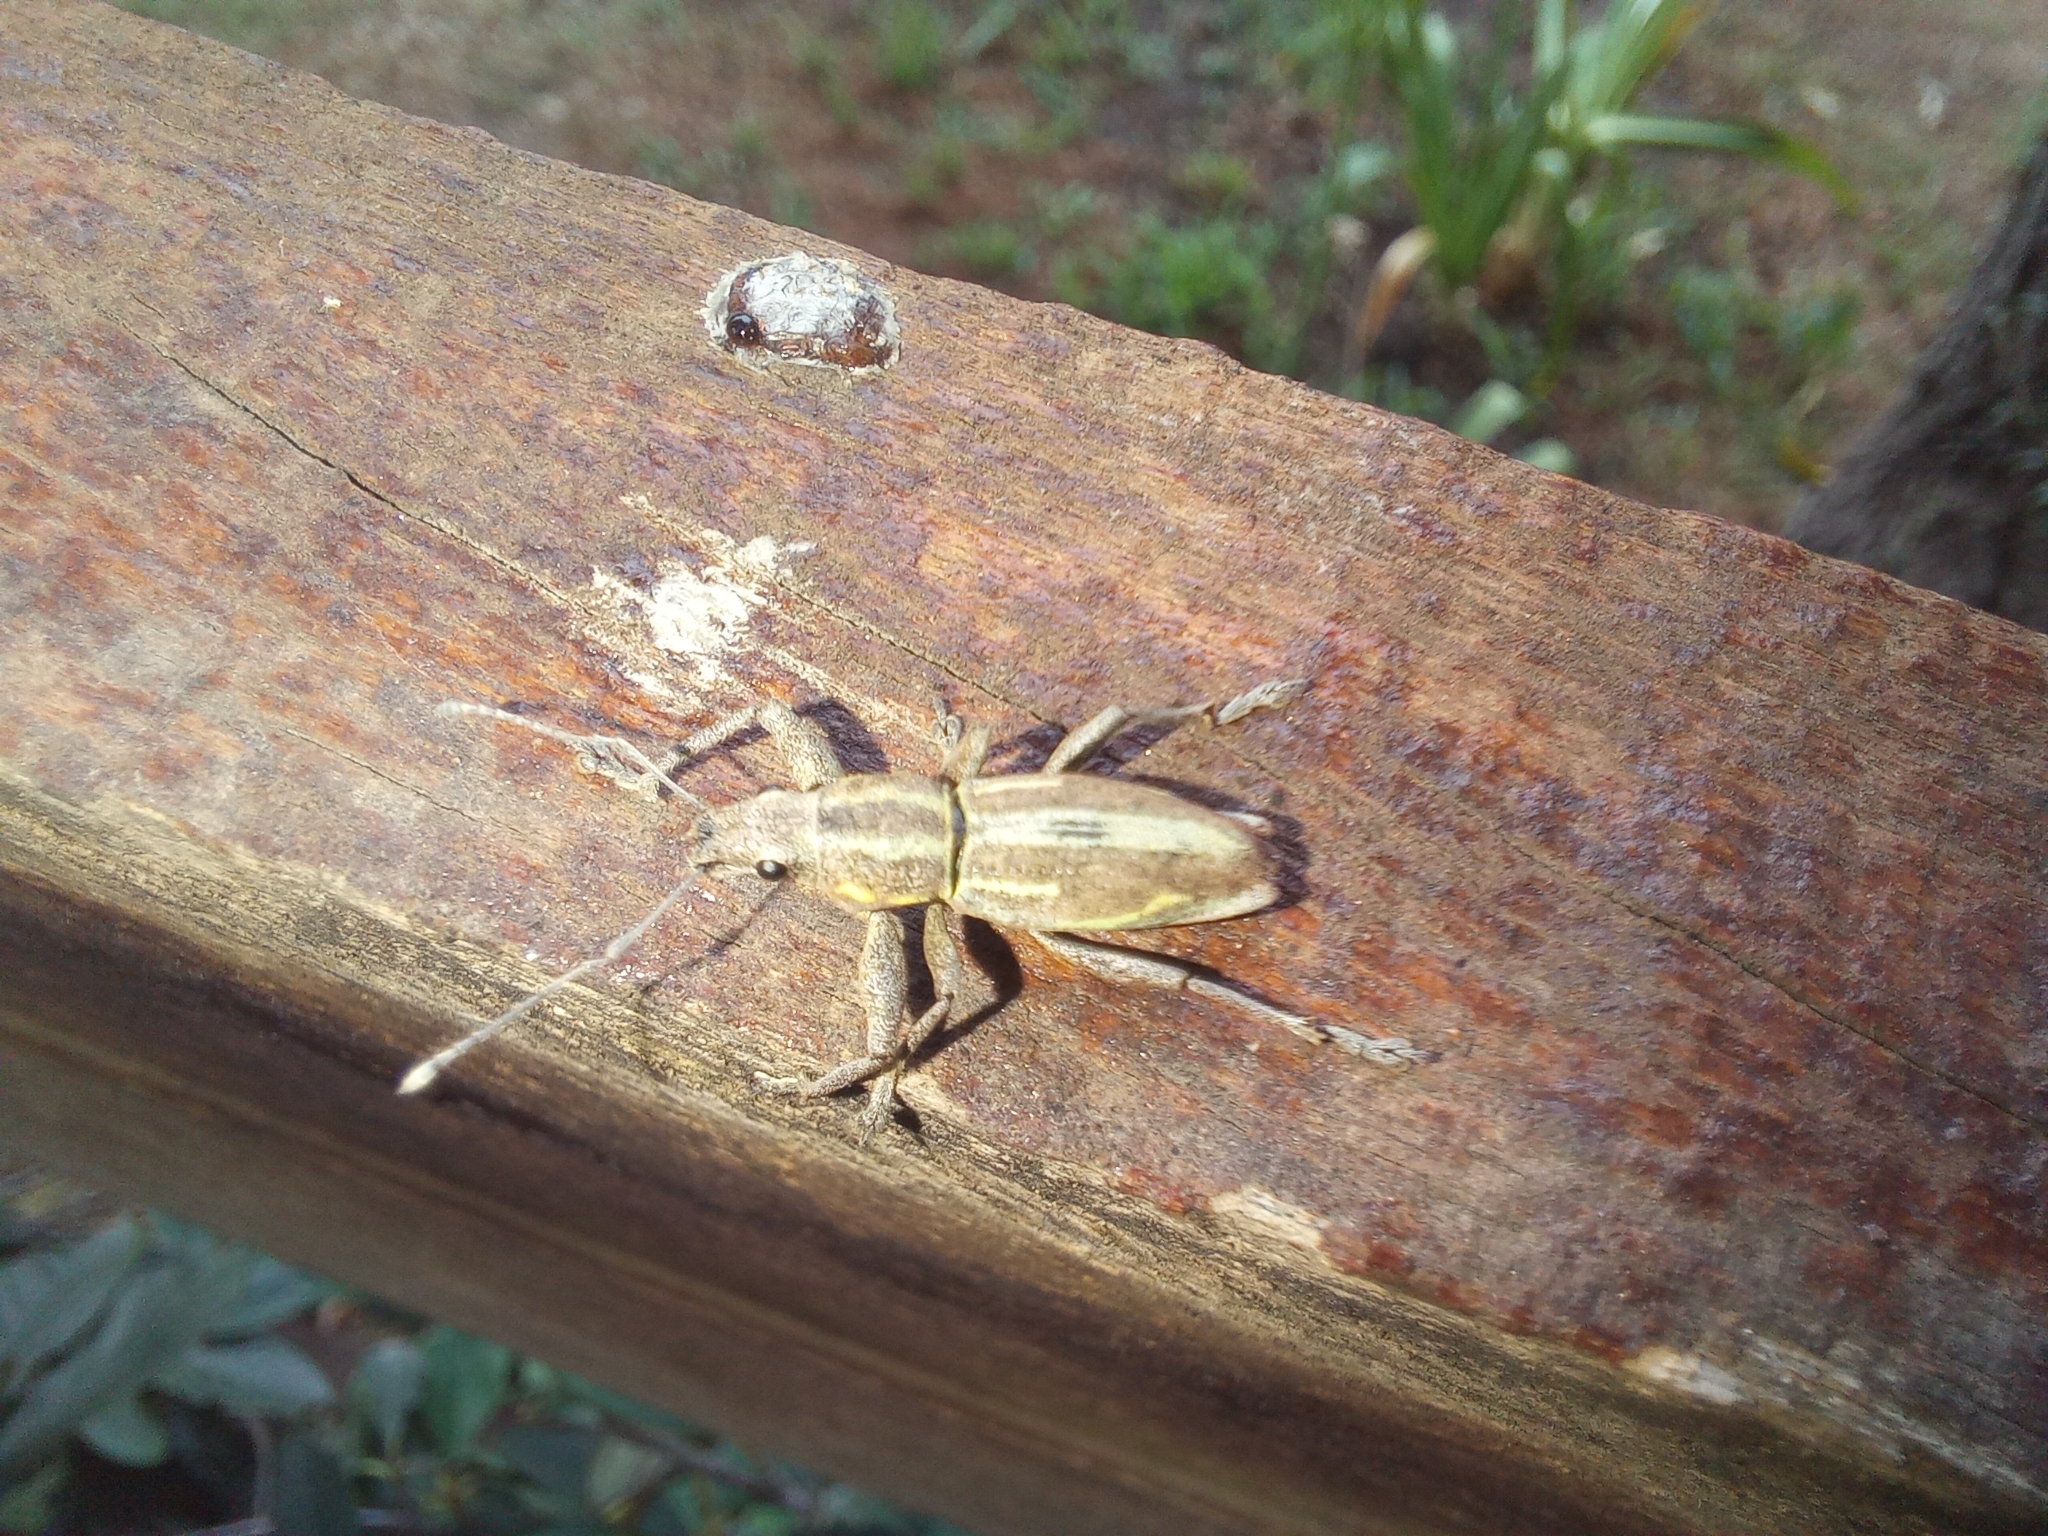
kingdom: Animalia
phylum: Arthropoda
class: Insecta
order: Coleoptera
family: Curculionidae
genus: Naupactus
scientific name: Naupactus xanthographus
